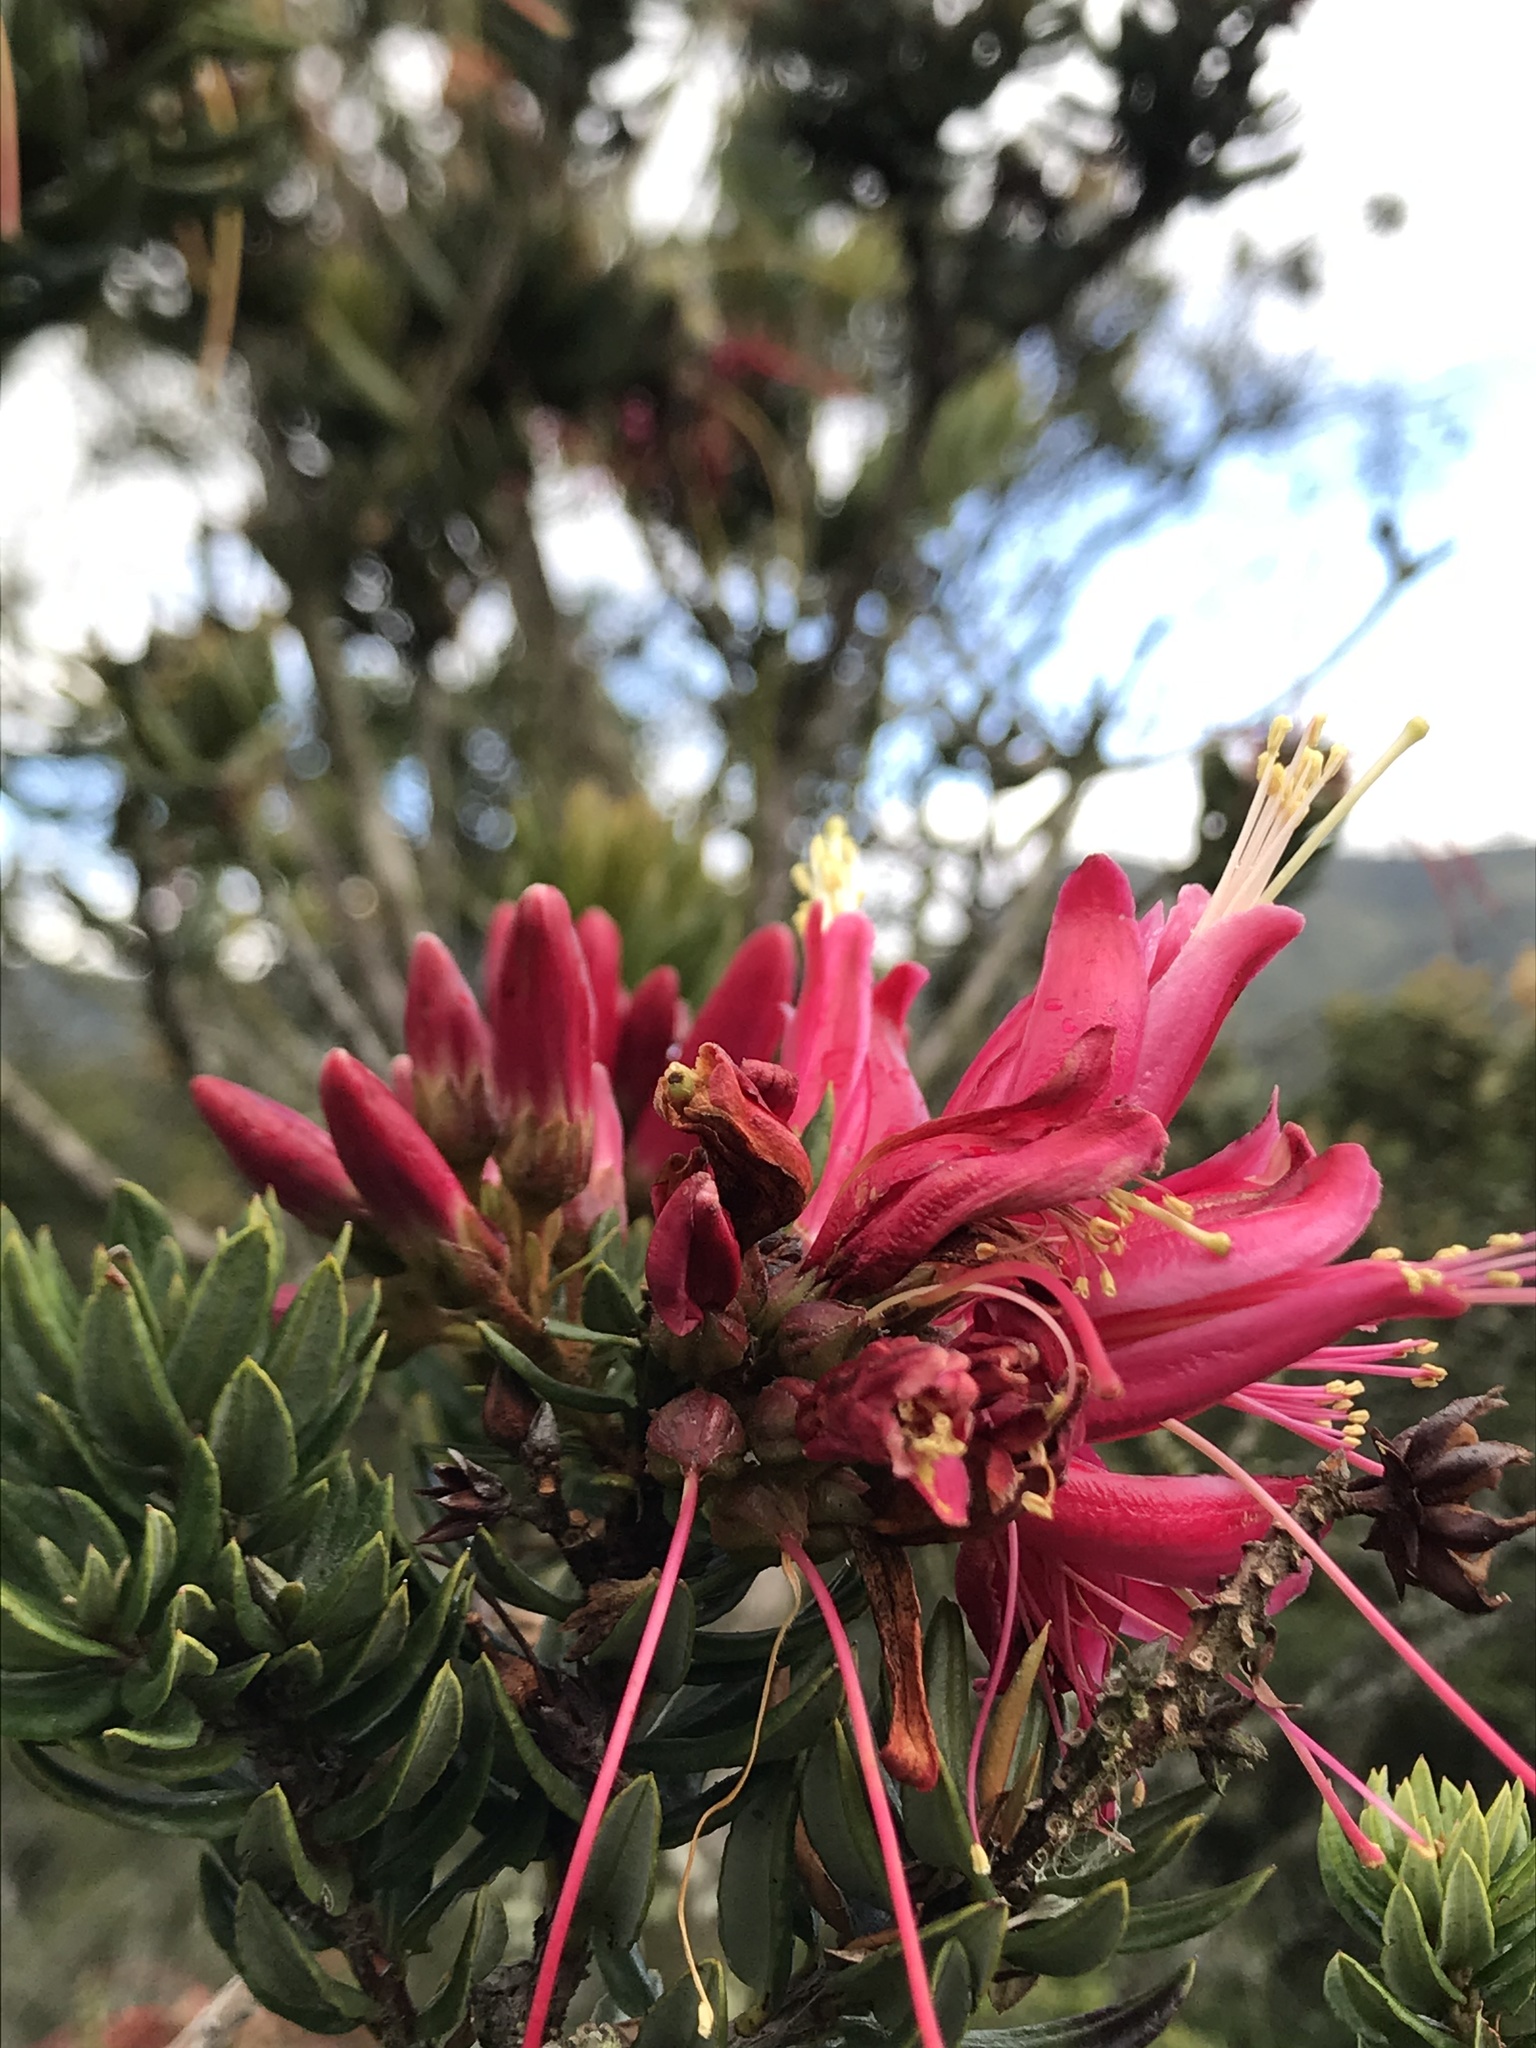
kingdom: Plantae
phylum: Tracheophyta
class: Magnoliopsida
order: Ericales
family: Ericaceae
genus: Bejaria
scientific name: Bejaria resinosa
